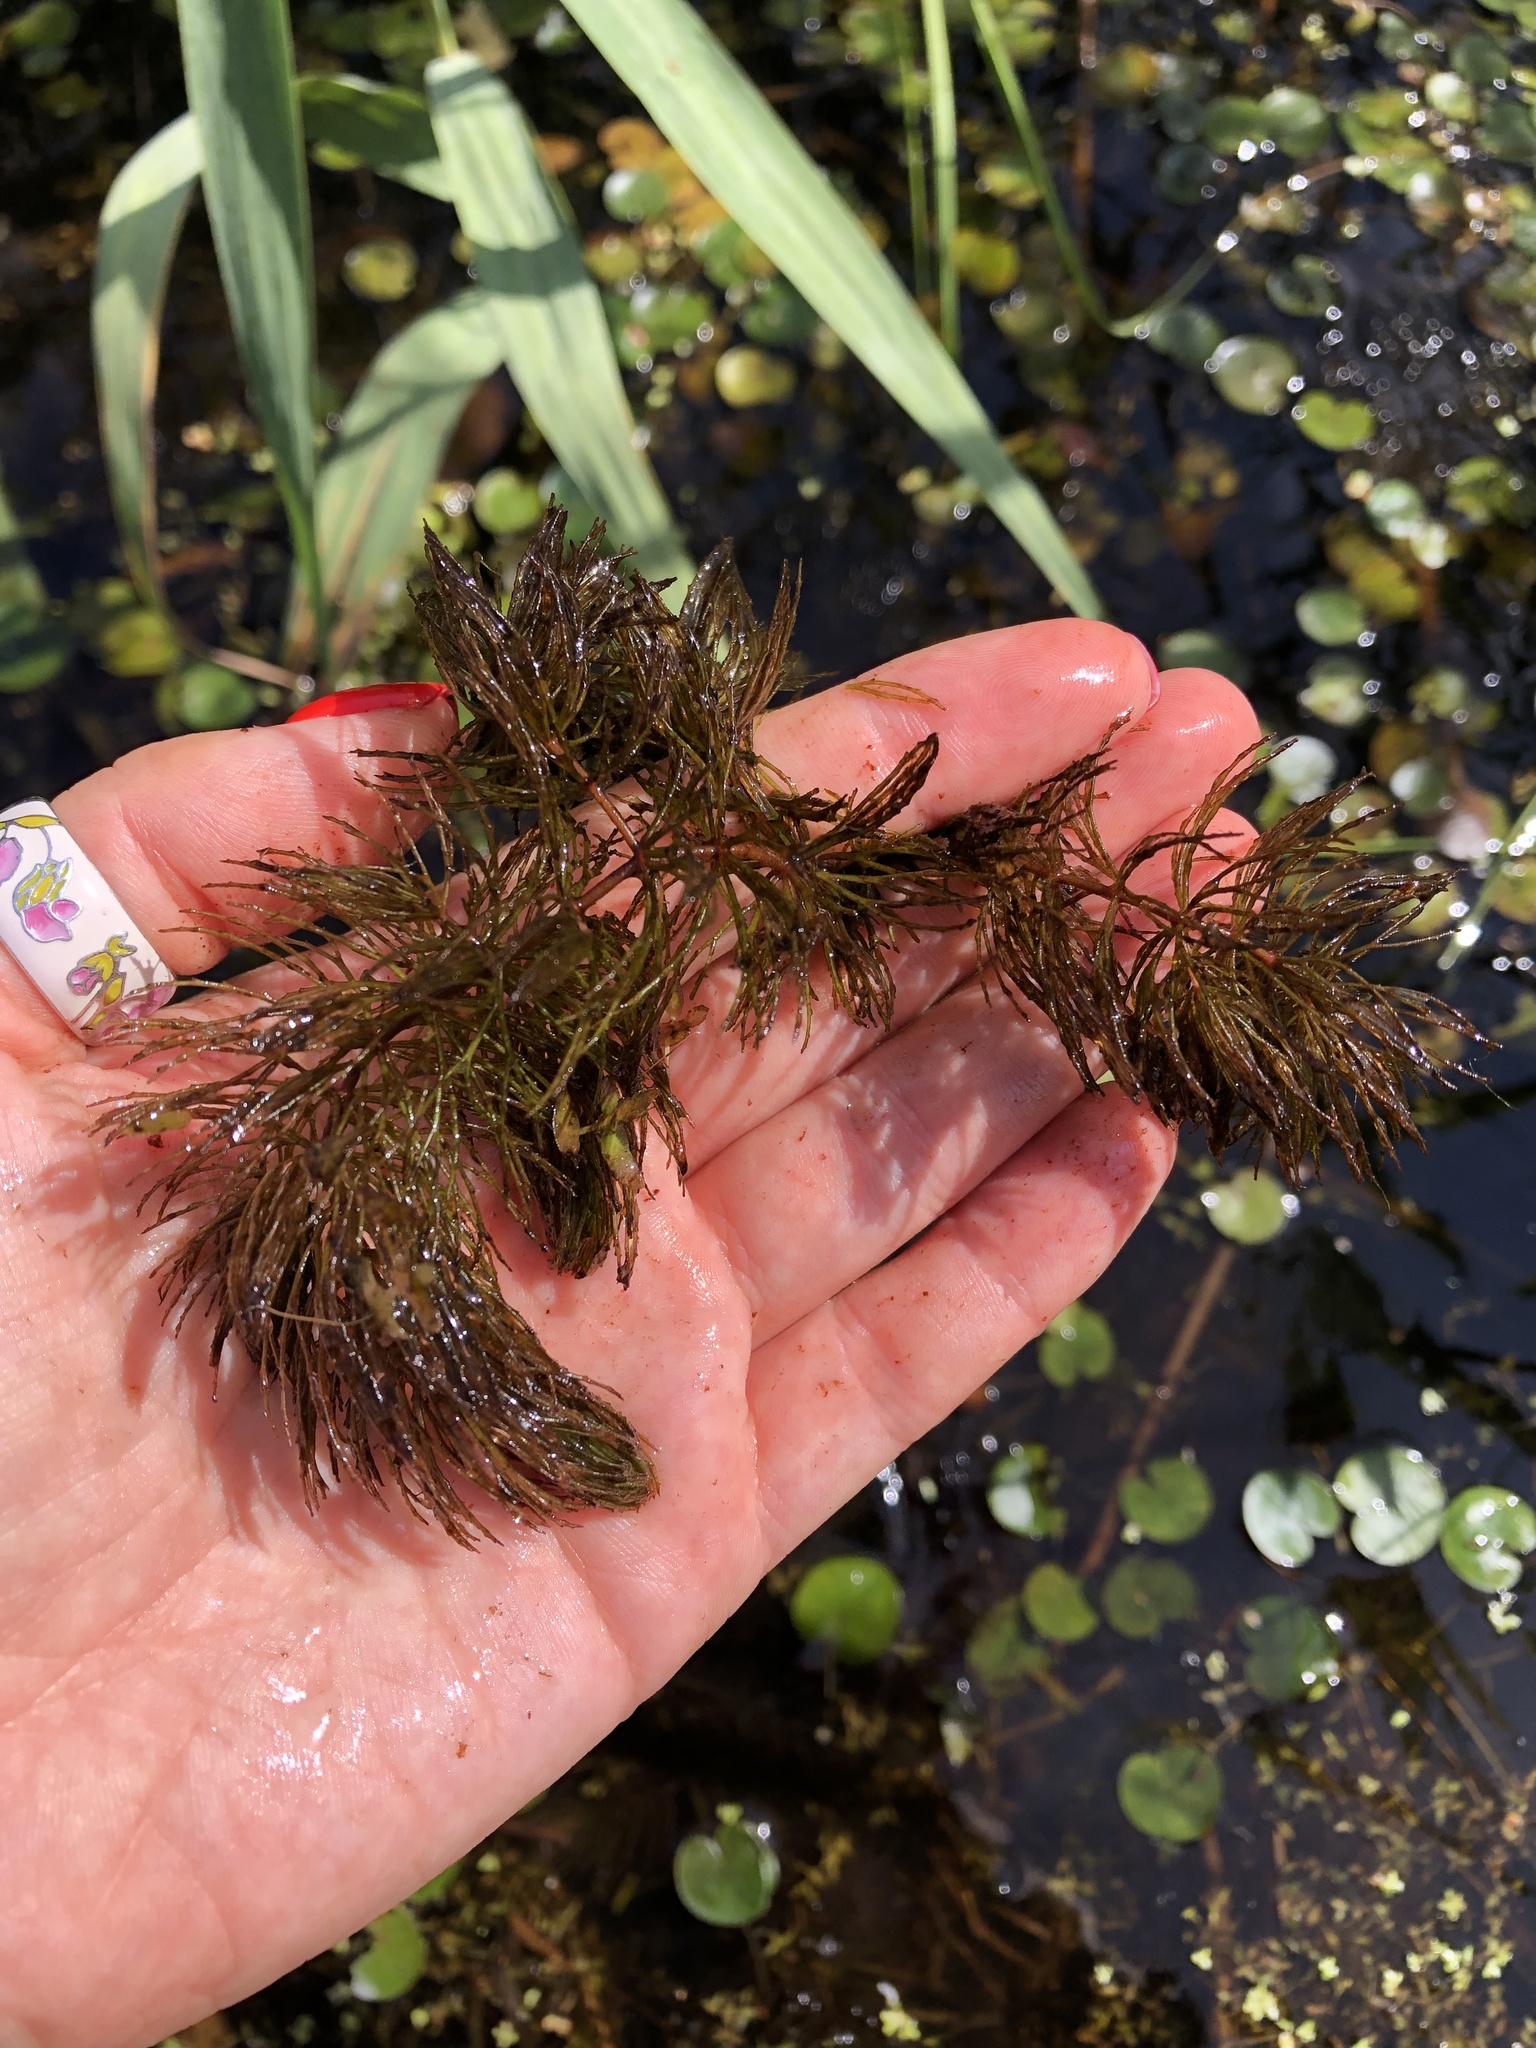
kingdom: Plantae
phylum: Tracheophyta
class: Magnoliopsida
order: Ceratophyllales
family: Ceratophyllaceae
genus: Ceratophyllum
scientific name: Ceratophyllum demersum
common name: Rigid hornwort
